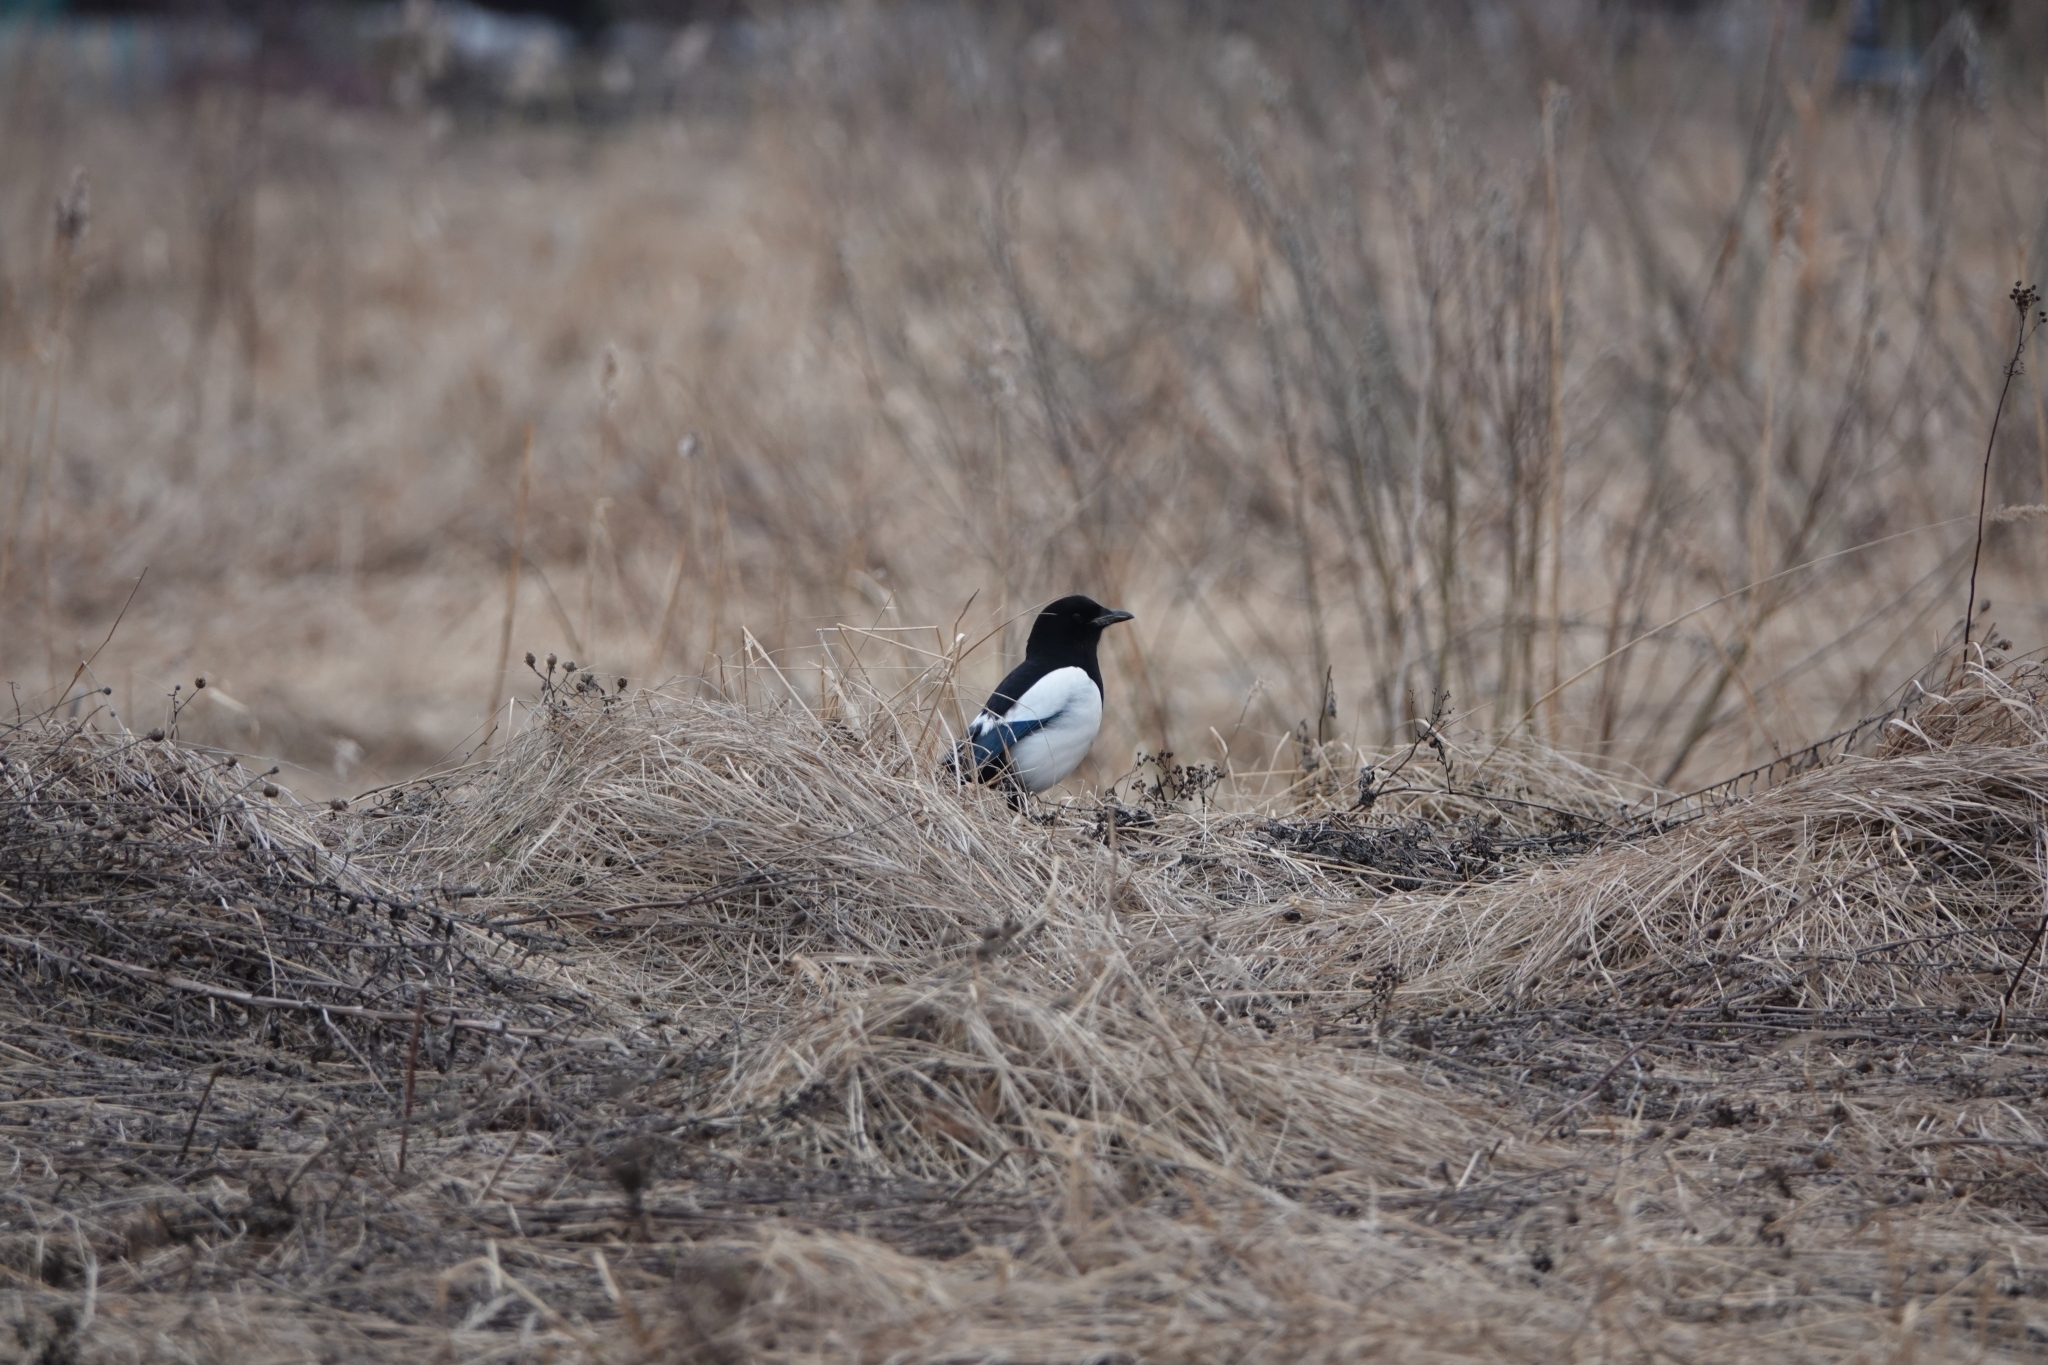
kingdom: Animalia
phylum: Chordata
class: Aves
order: Passeriformes
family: Corvidae
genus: Pica
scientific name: Pica pica
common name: Eurasian magpie
